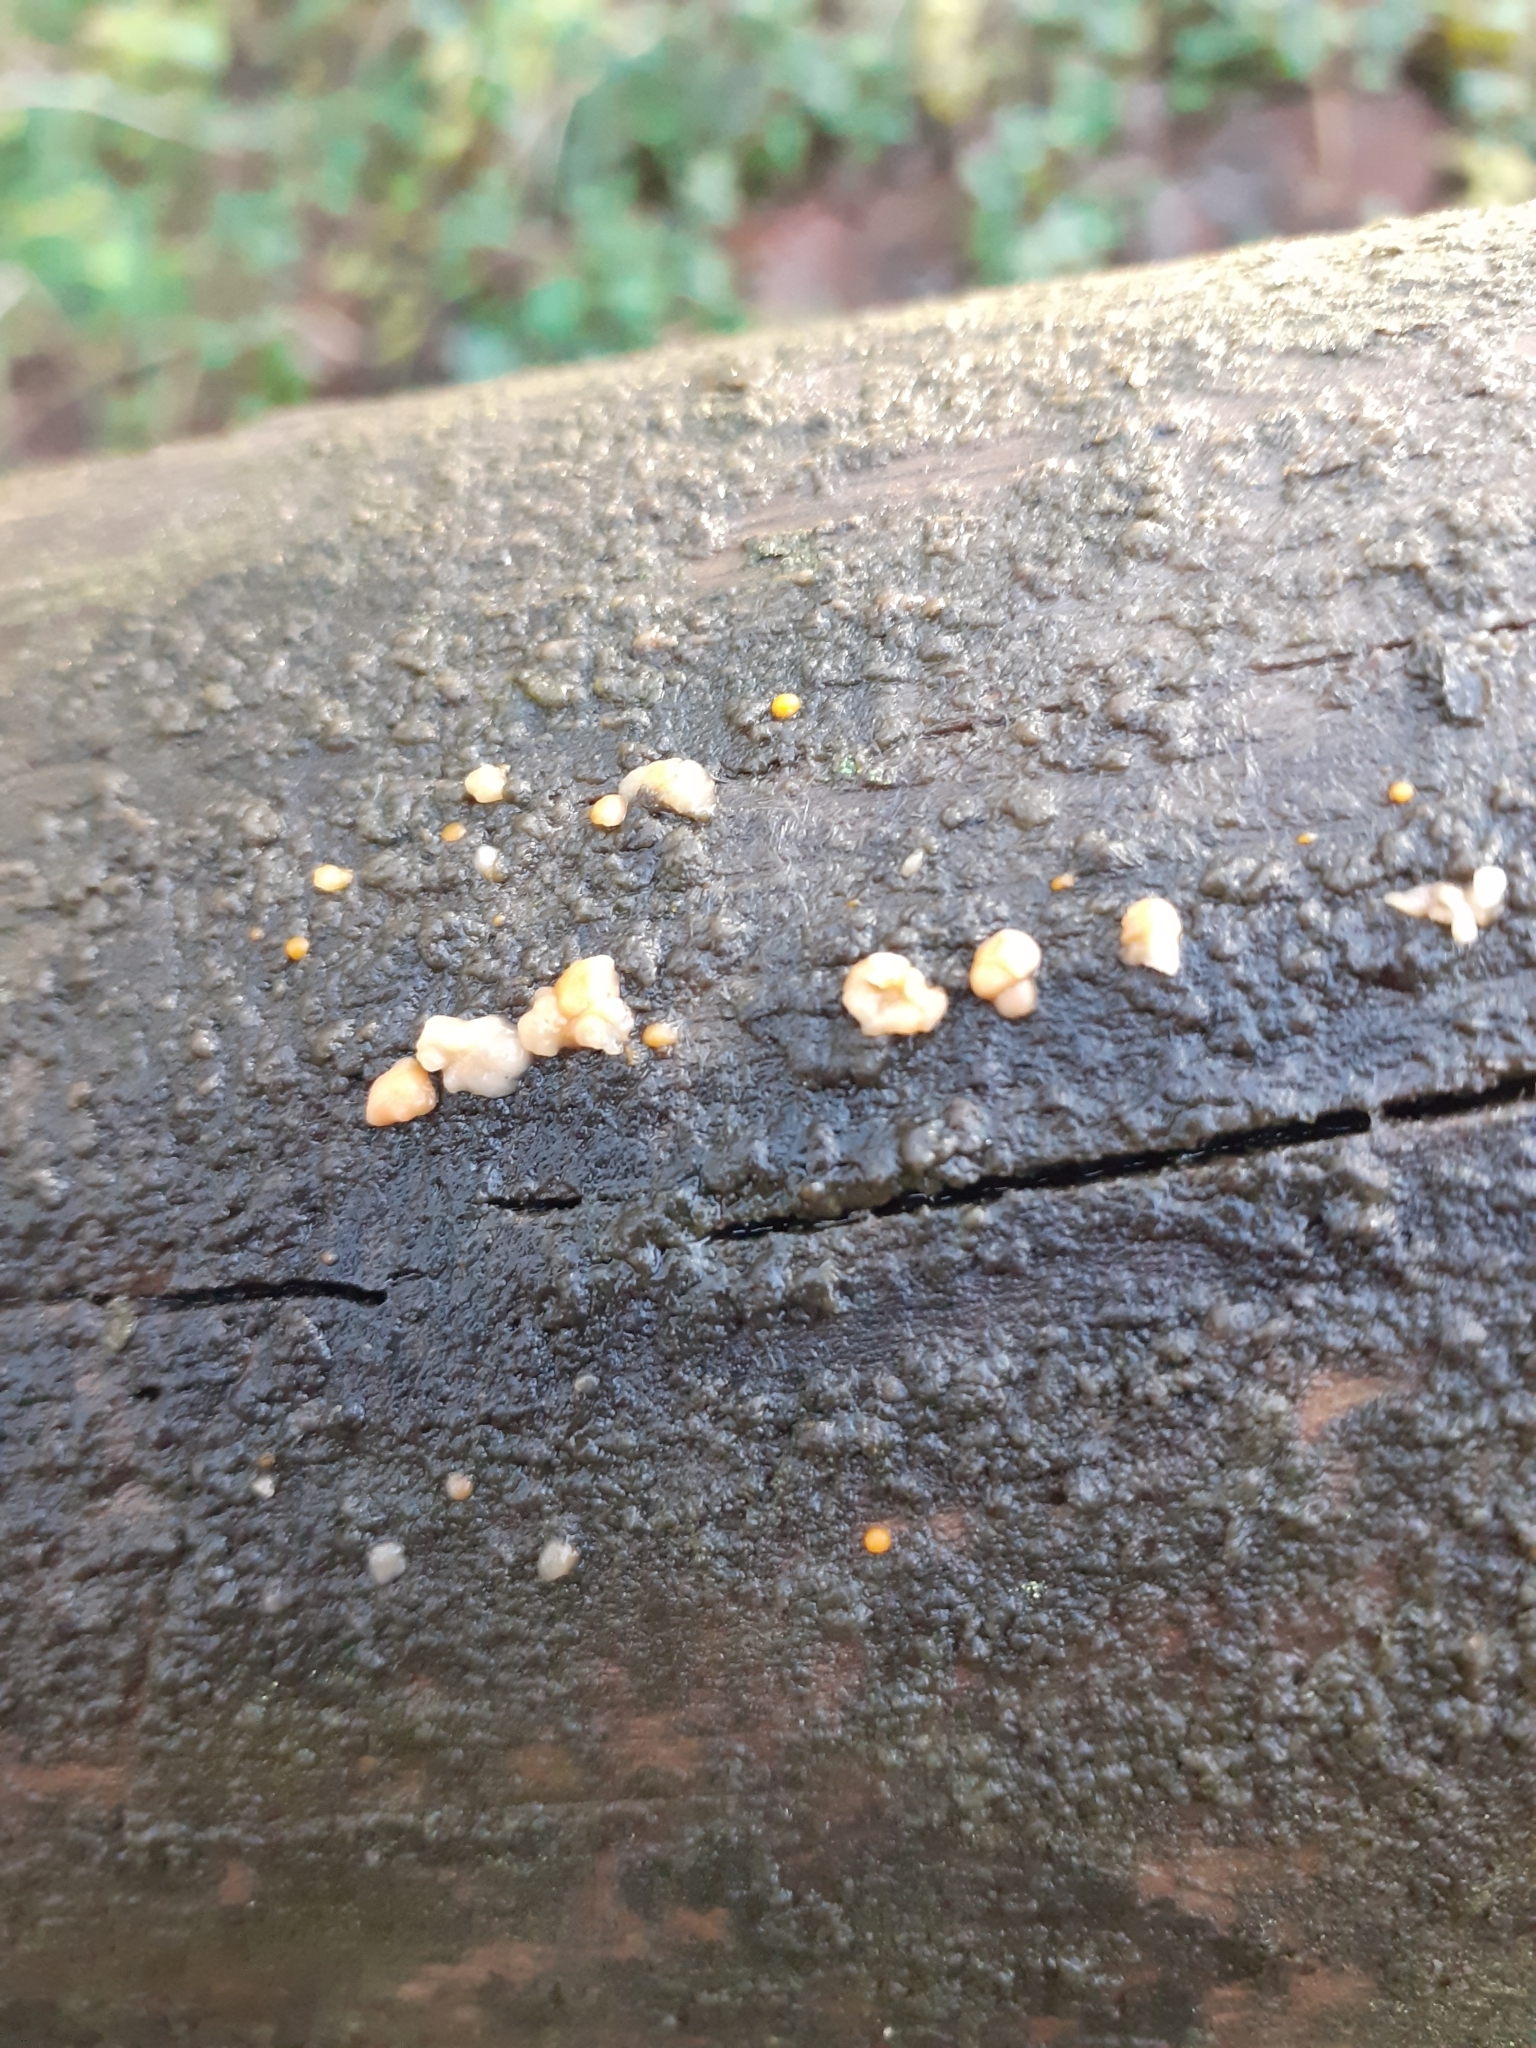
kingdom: Fungi
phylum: Basidiomycota
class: Dacrymycetes
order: Dacrymycetales
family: Dacrymycetaceae
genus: Dacrymyces
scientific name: Dacrymyces stillatus
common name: Common jelly spot
